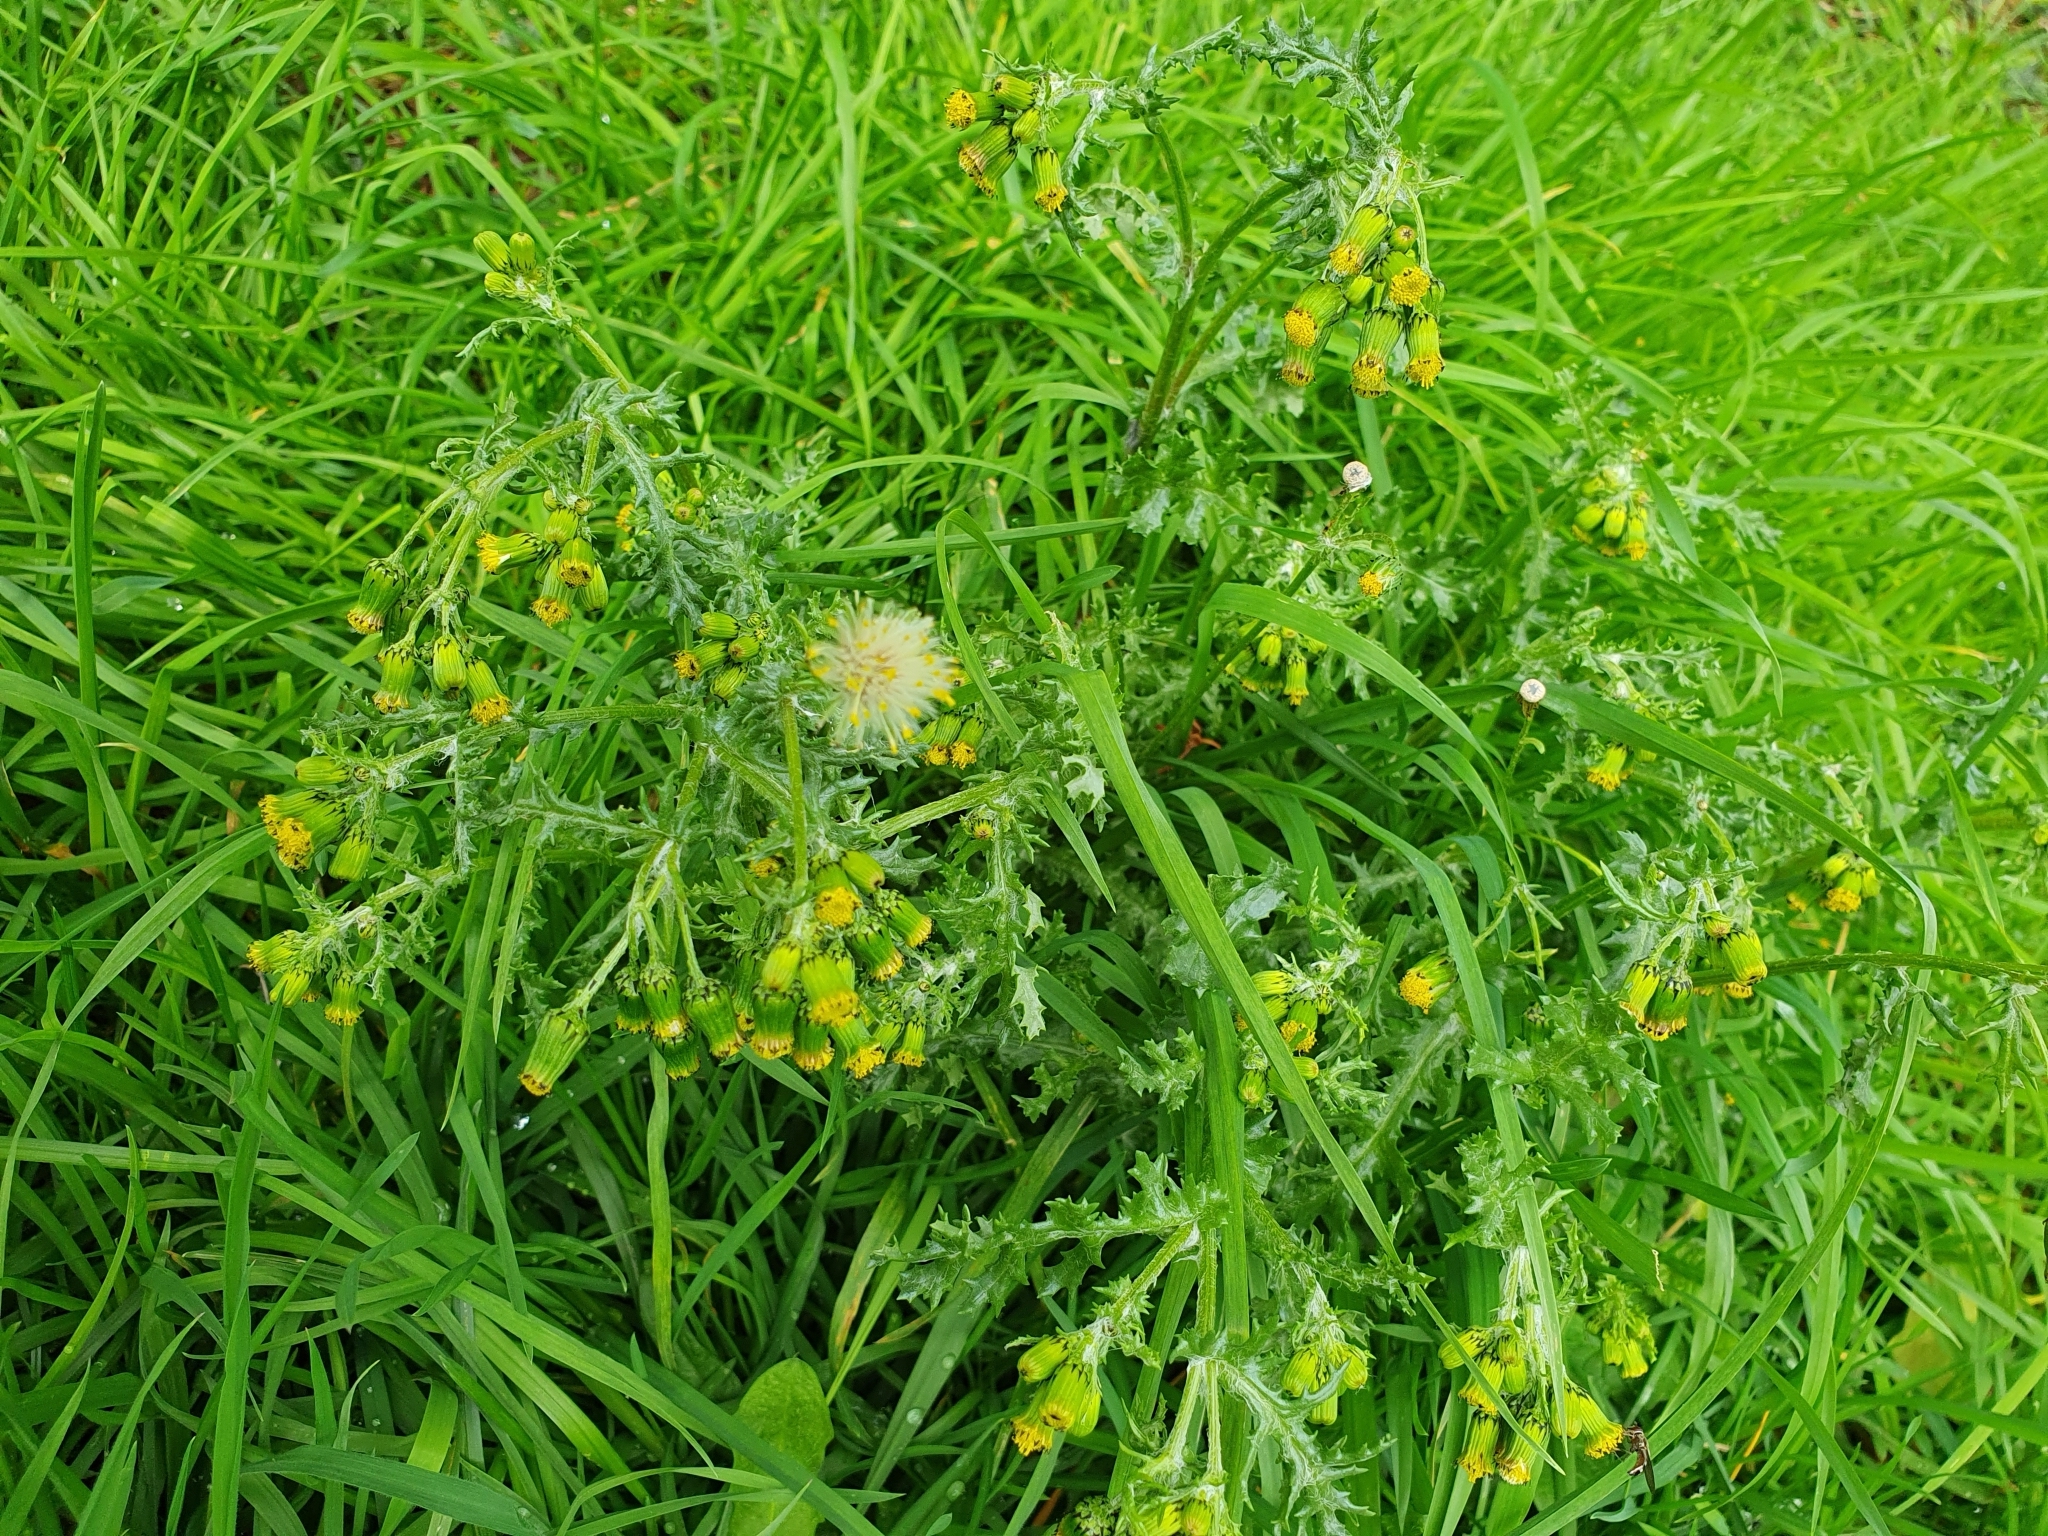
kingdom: Plantae
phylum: Tracheophyta
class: Magnoliopsida
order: Asterales
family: Asteraceae
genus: Senecio
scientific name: Senecio vulgaris
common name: Old-man-in-the-spring
